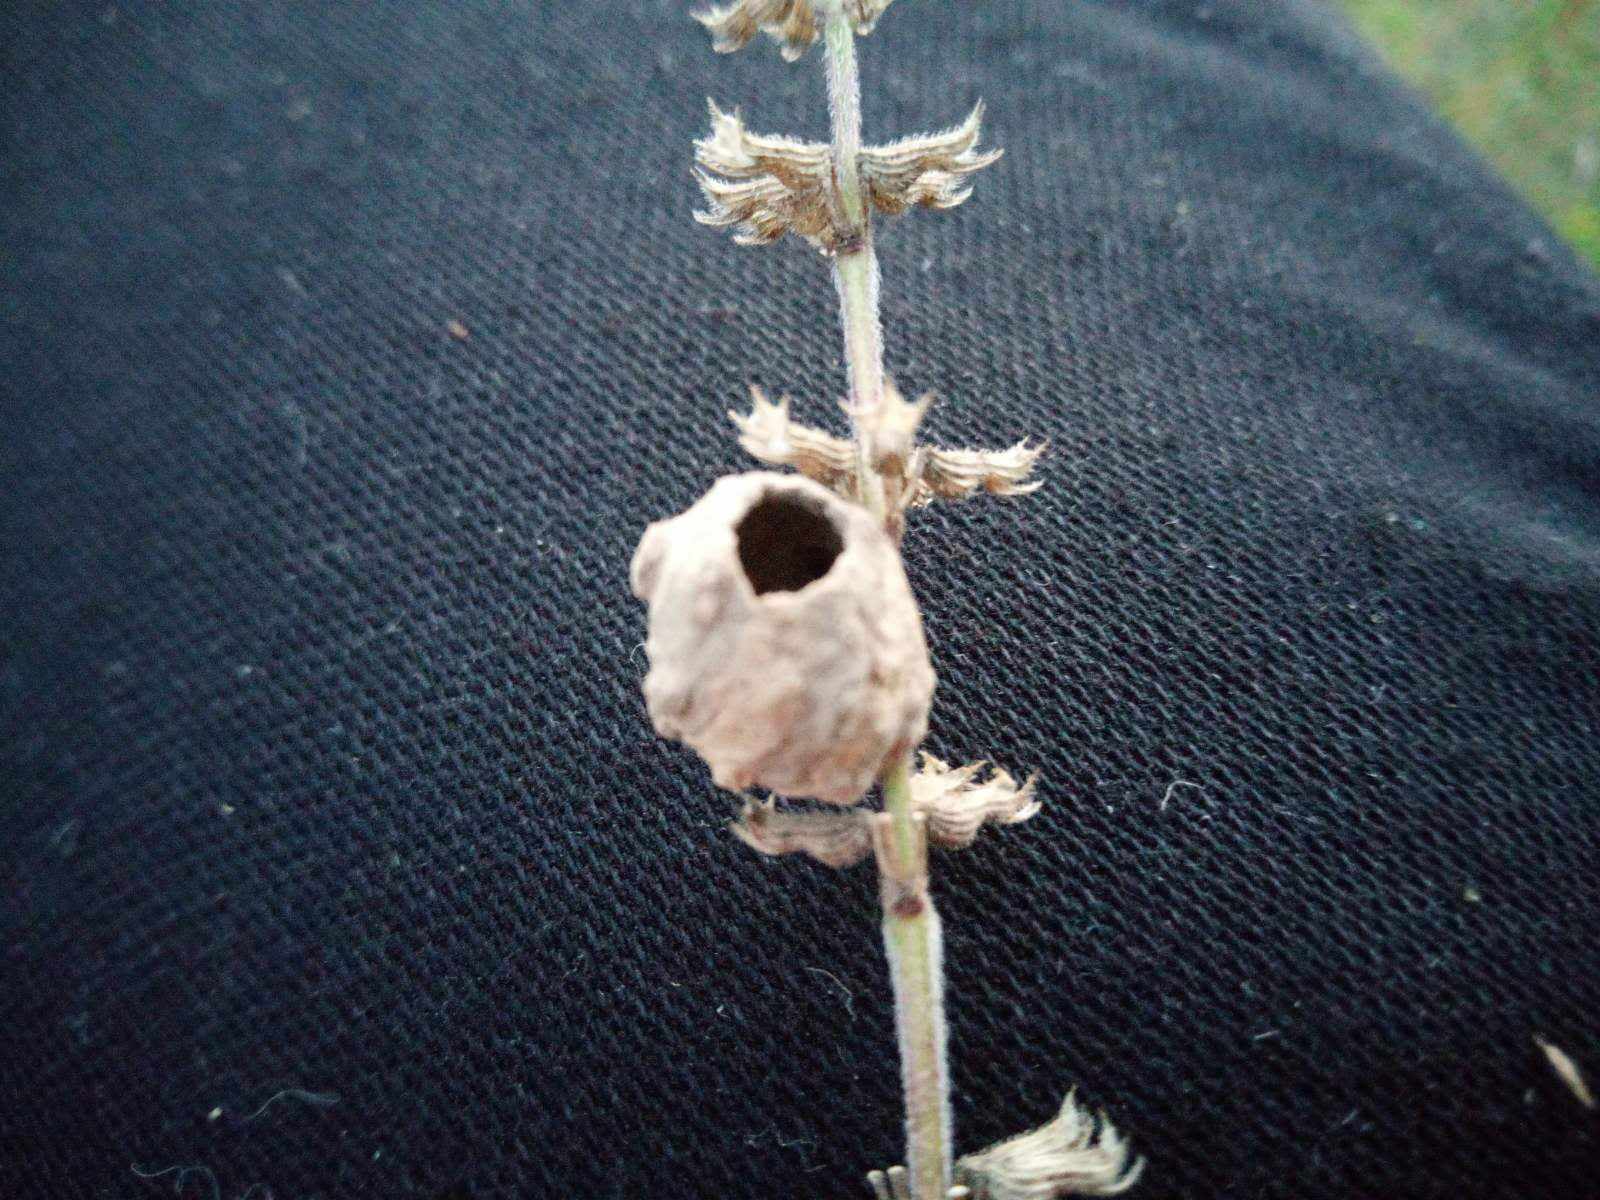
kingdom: Animalia
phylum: Arthropoda
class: Insecta
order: Hymenoptera
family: Vespidae
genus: Eumenes
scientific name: Eumenes
